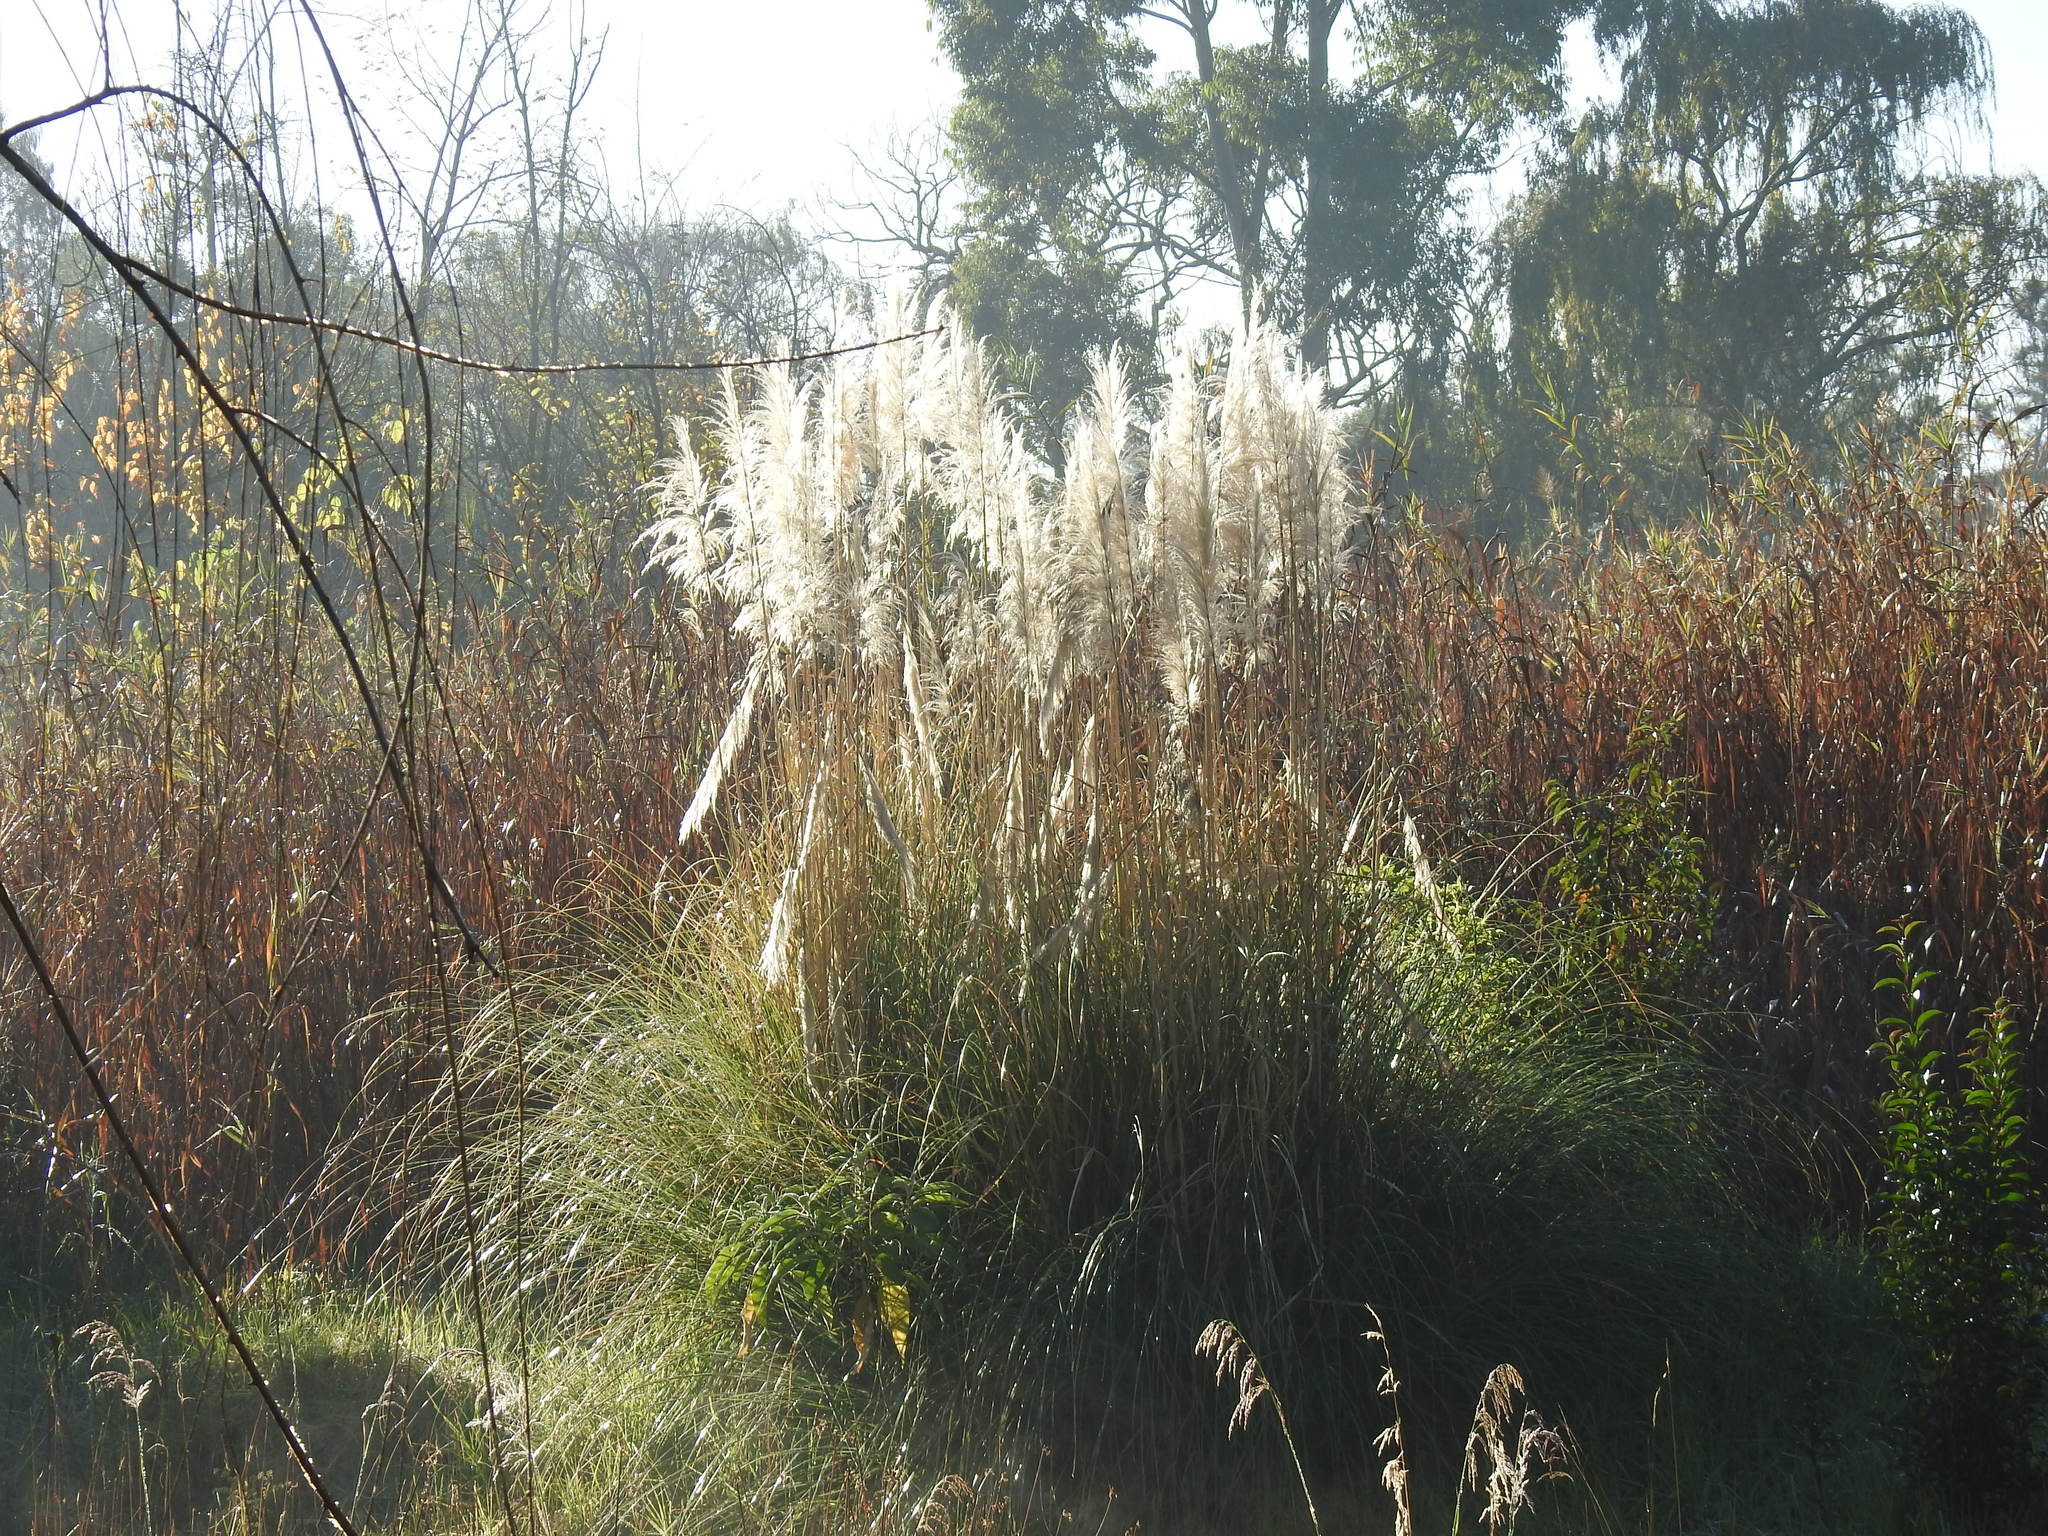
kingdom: Plantae
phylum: Tracheophyta
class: Liliopsida
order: Poales
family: Poaceae
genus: Cortaderia
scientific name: Cortaderia selloana
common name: Uruguayan pampas grass
